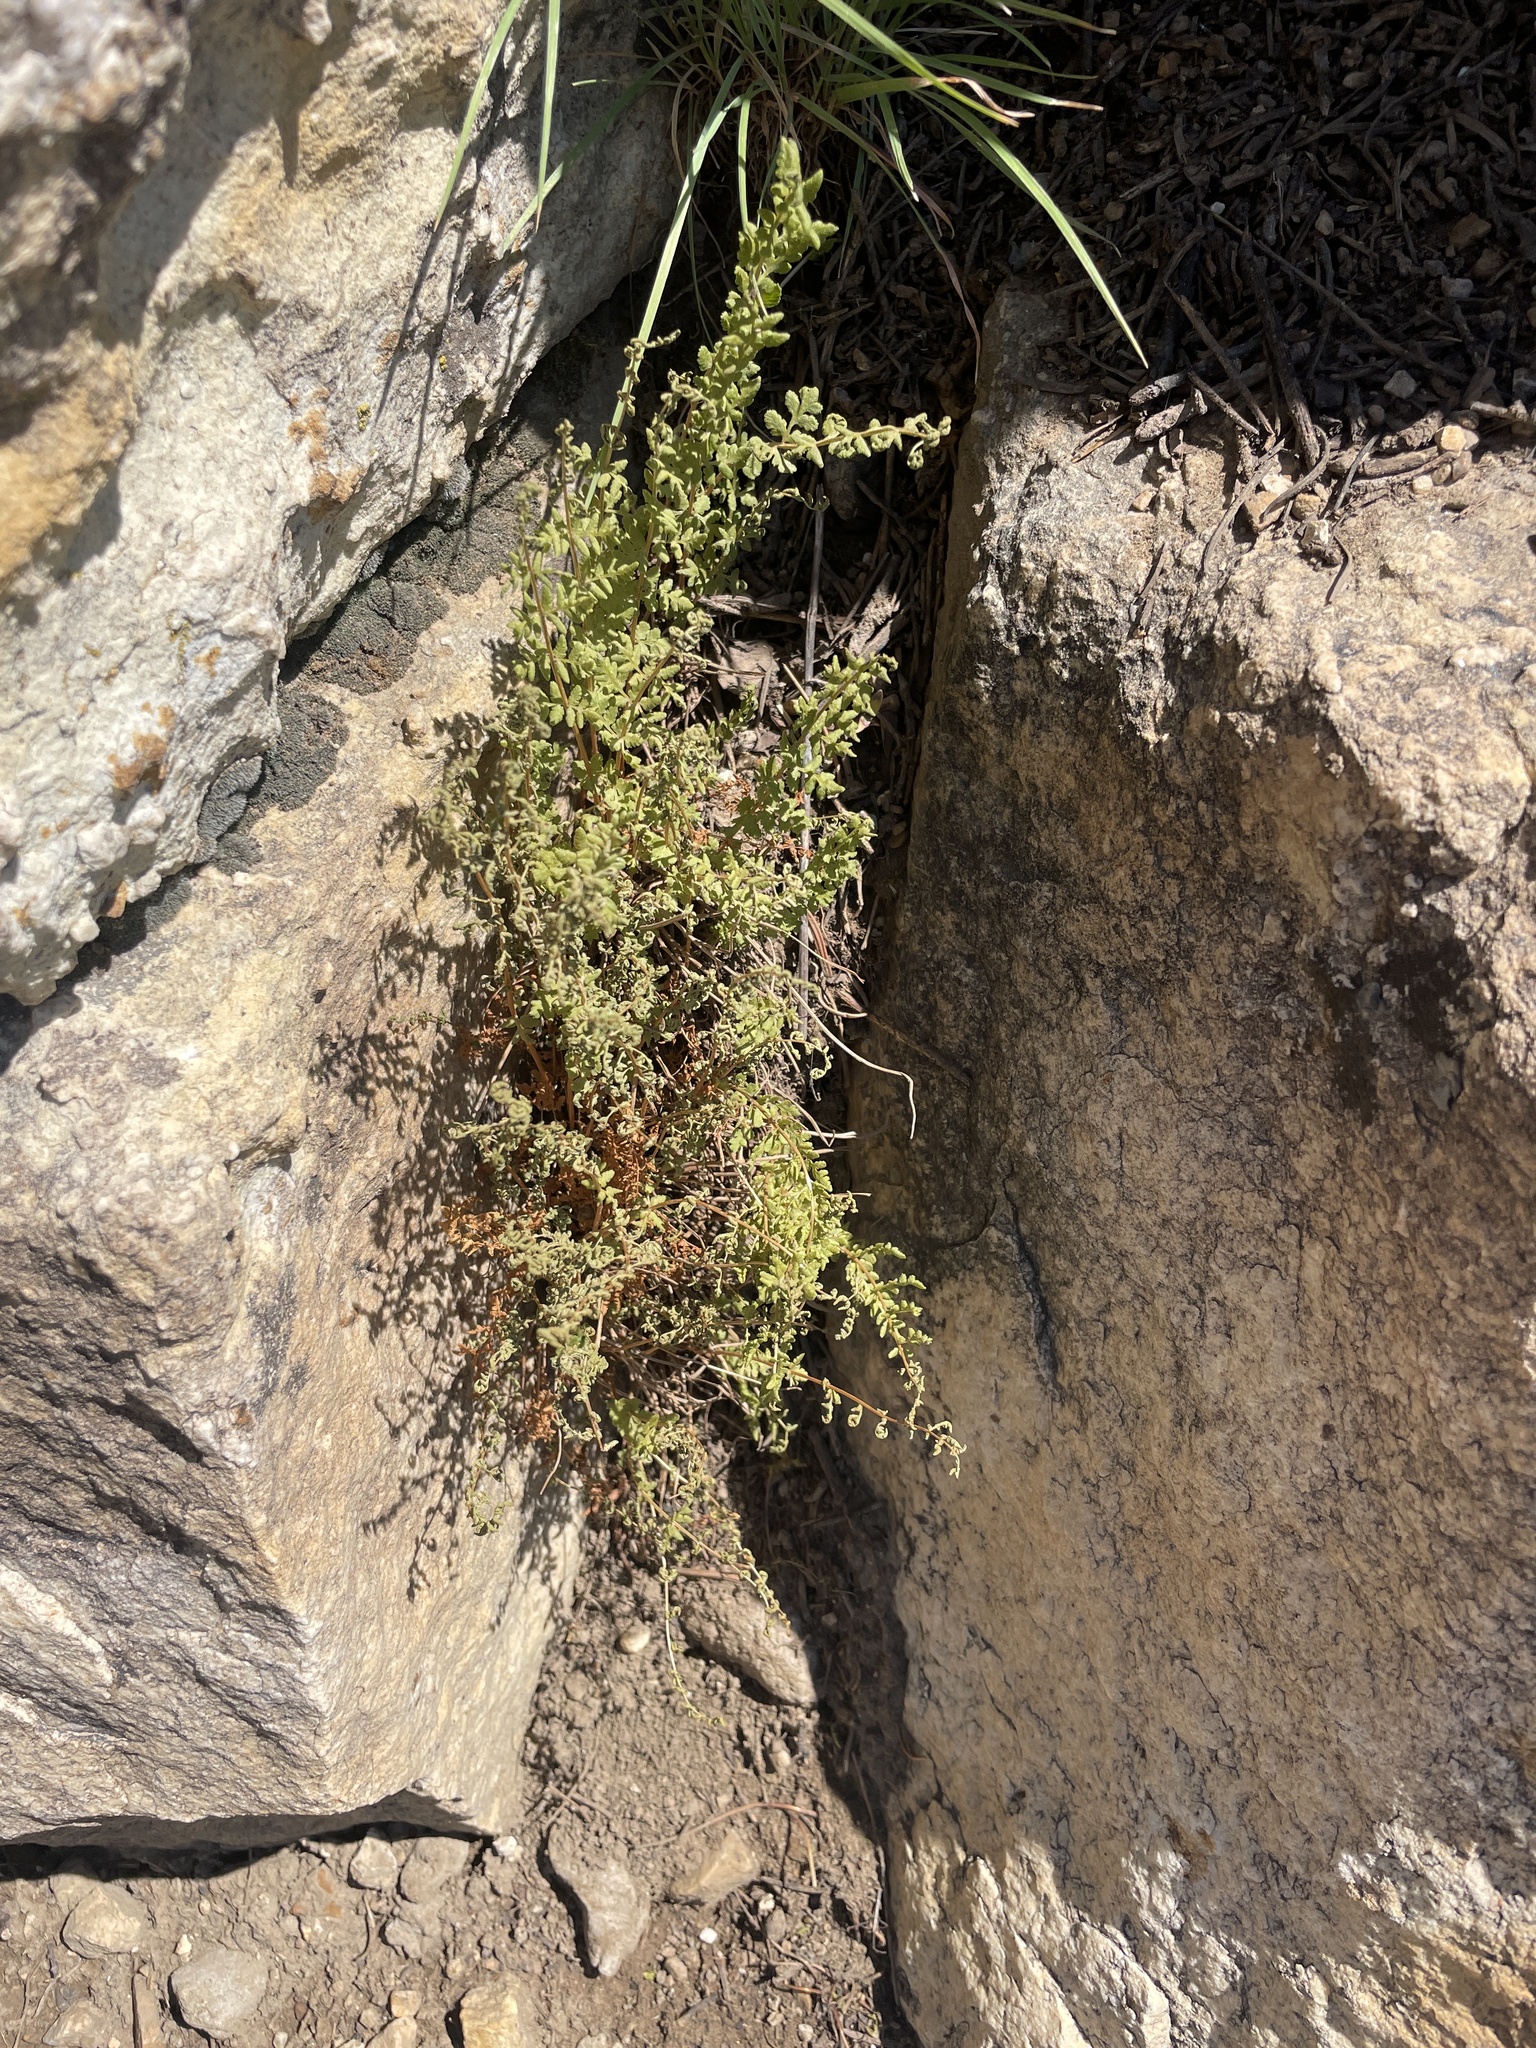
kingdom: Plantae
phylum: Tracheophyta
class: Polypodiopsida
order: Polypodiales
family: Woodsiaceae
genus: Physematium
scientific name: Physematium oreganum
